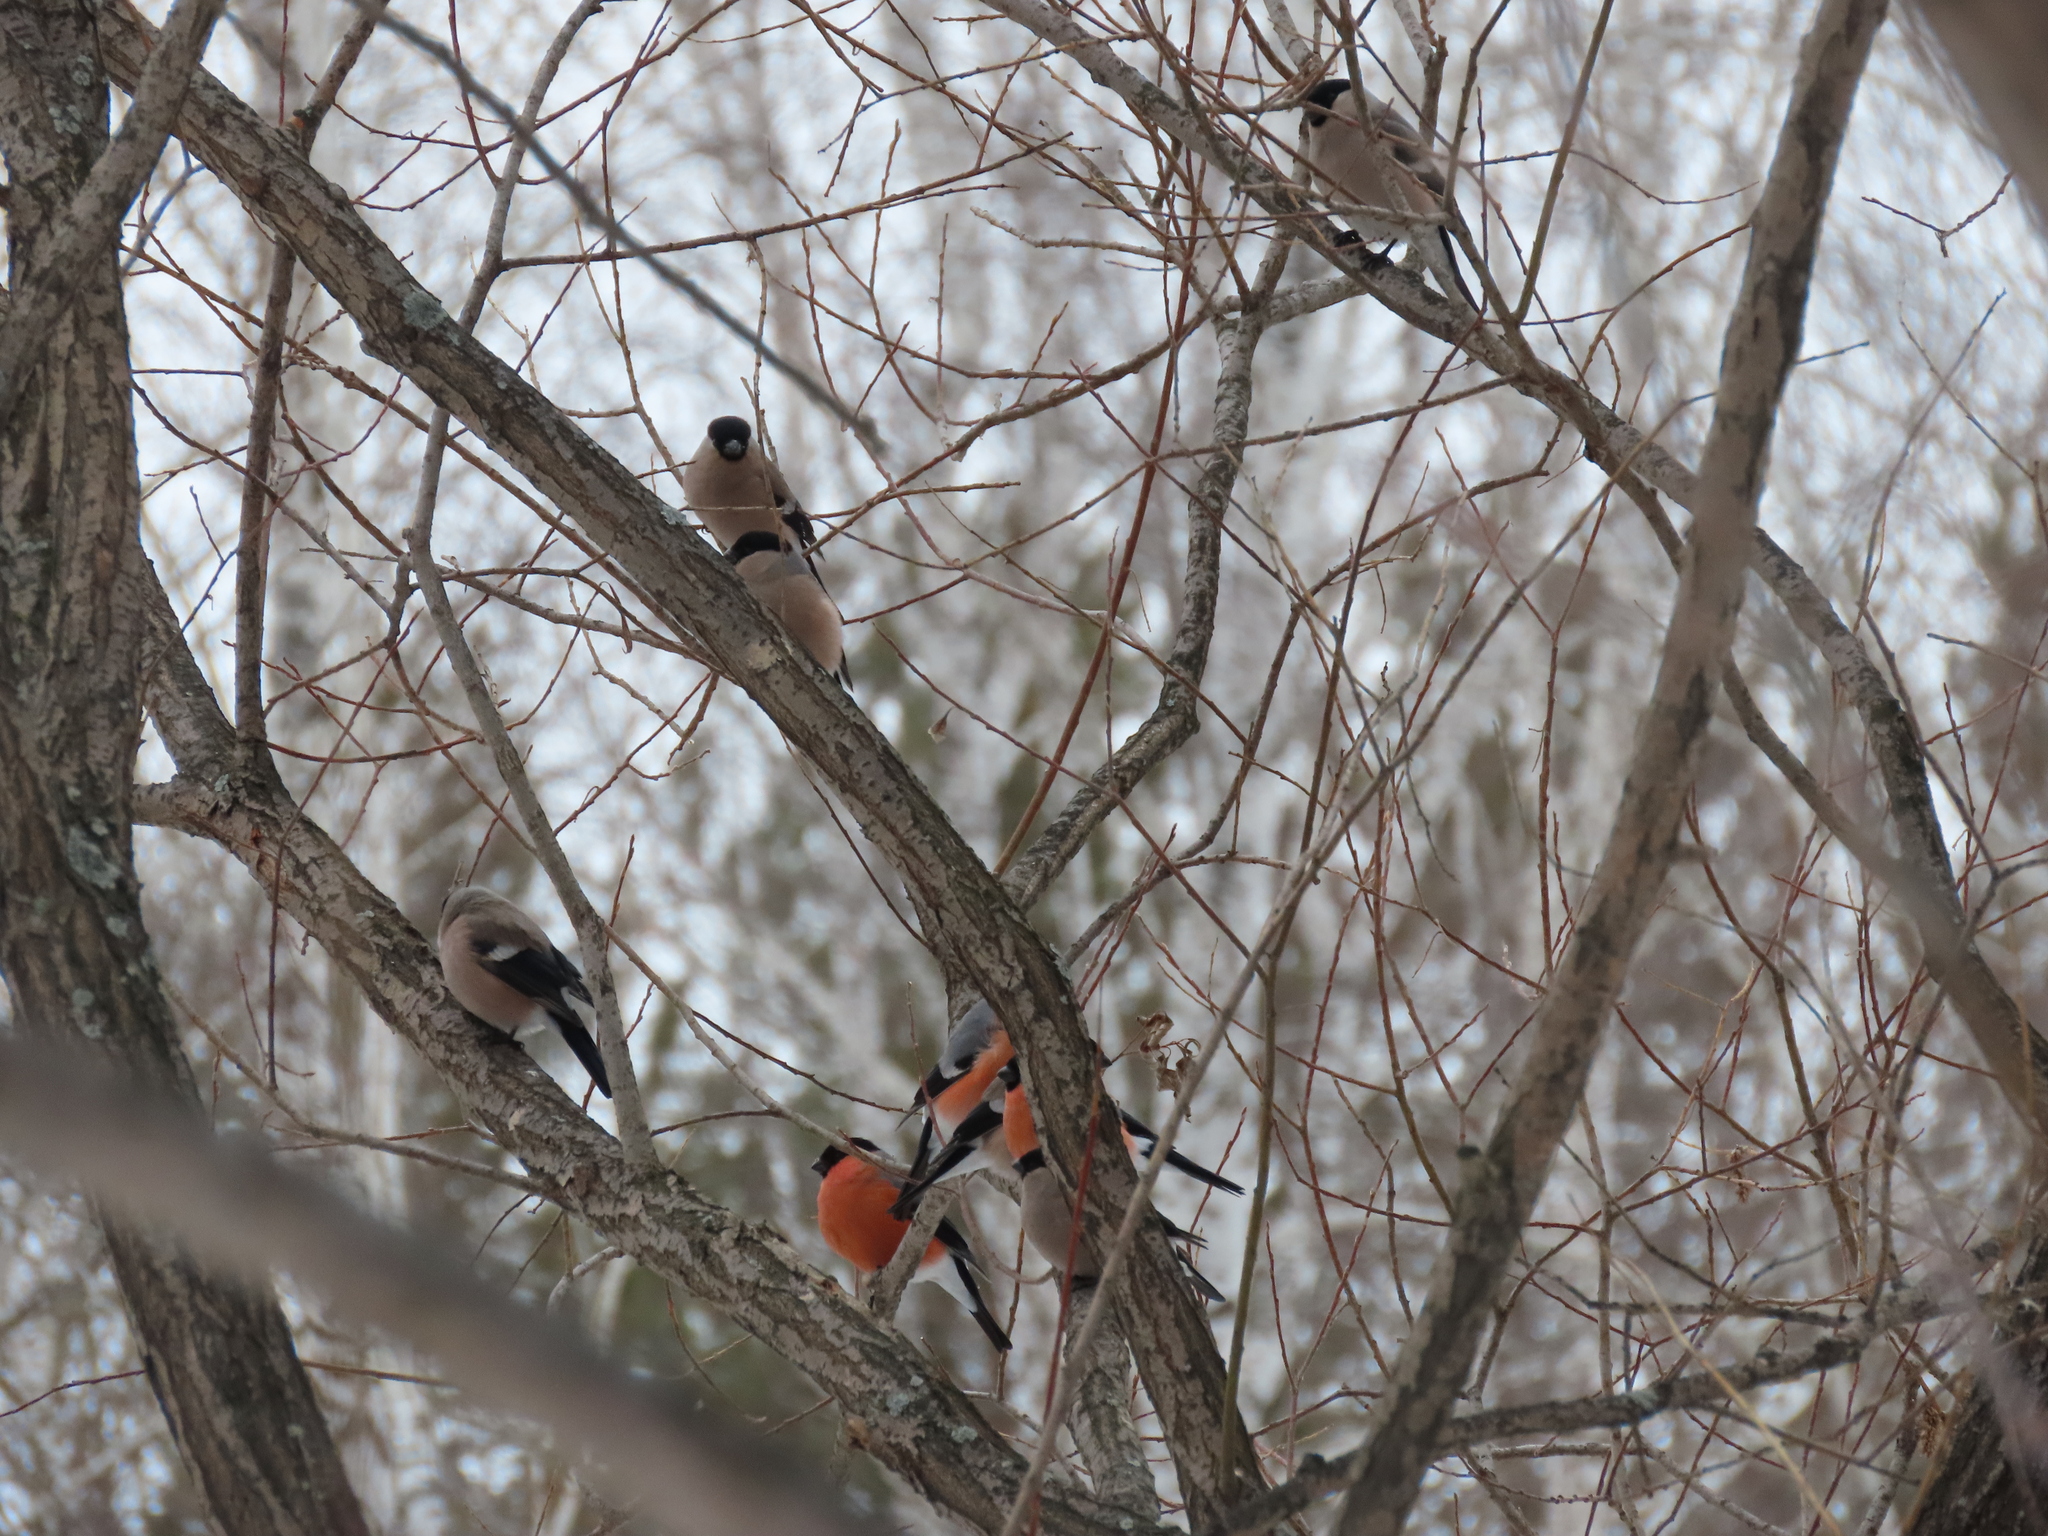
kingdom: Animalia
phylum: Chordata
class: Aves
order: Passeriformes
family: Fringillidae
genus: Pyrrhula
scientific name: Pyrrhula pyrrhula
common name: Eurasian bullfinch
